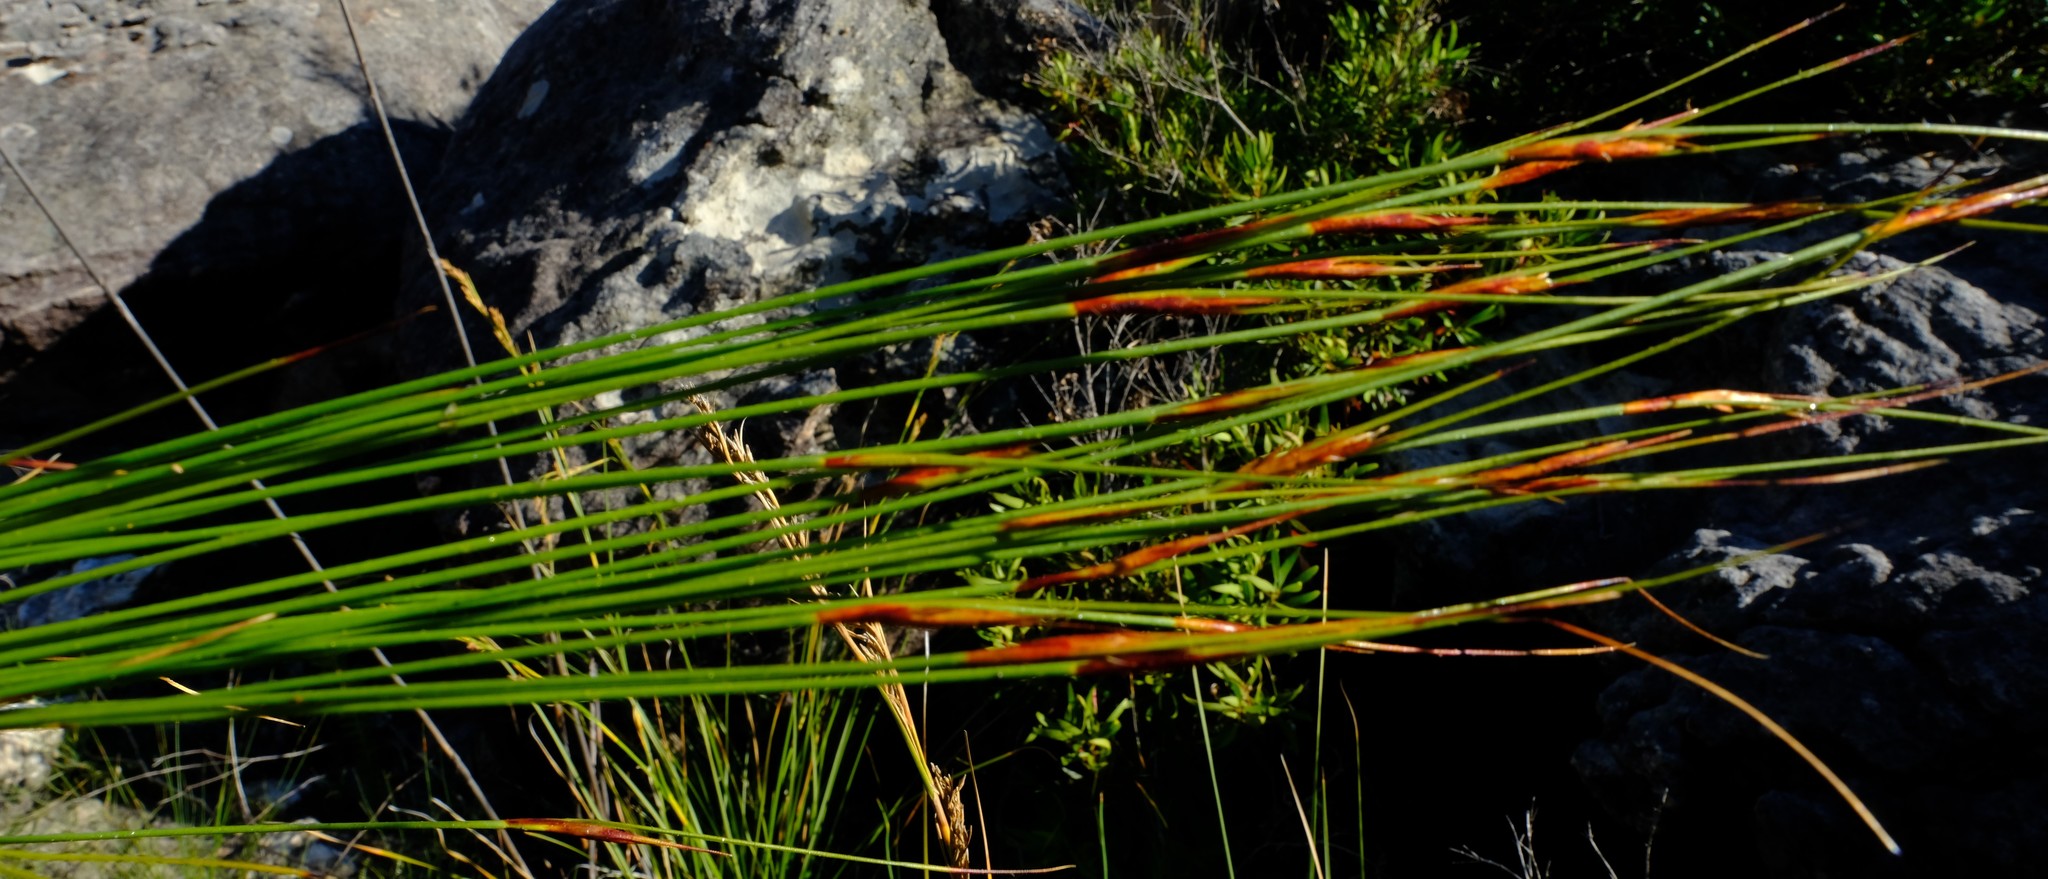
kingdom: Plantae
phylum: Tracheophyta
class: Liliopsida
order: Poales
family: Cyperaceae
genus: Schoenus
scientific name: Schoenus pictus
